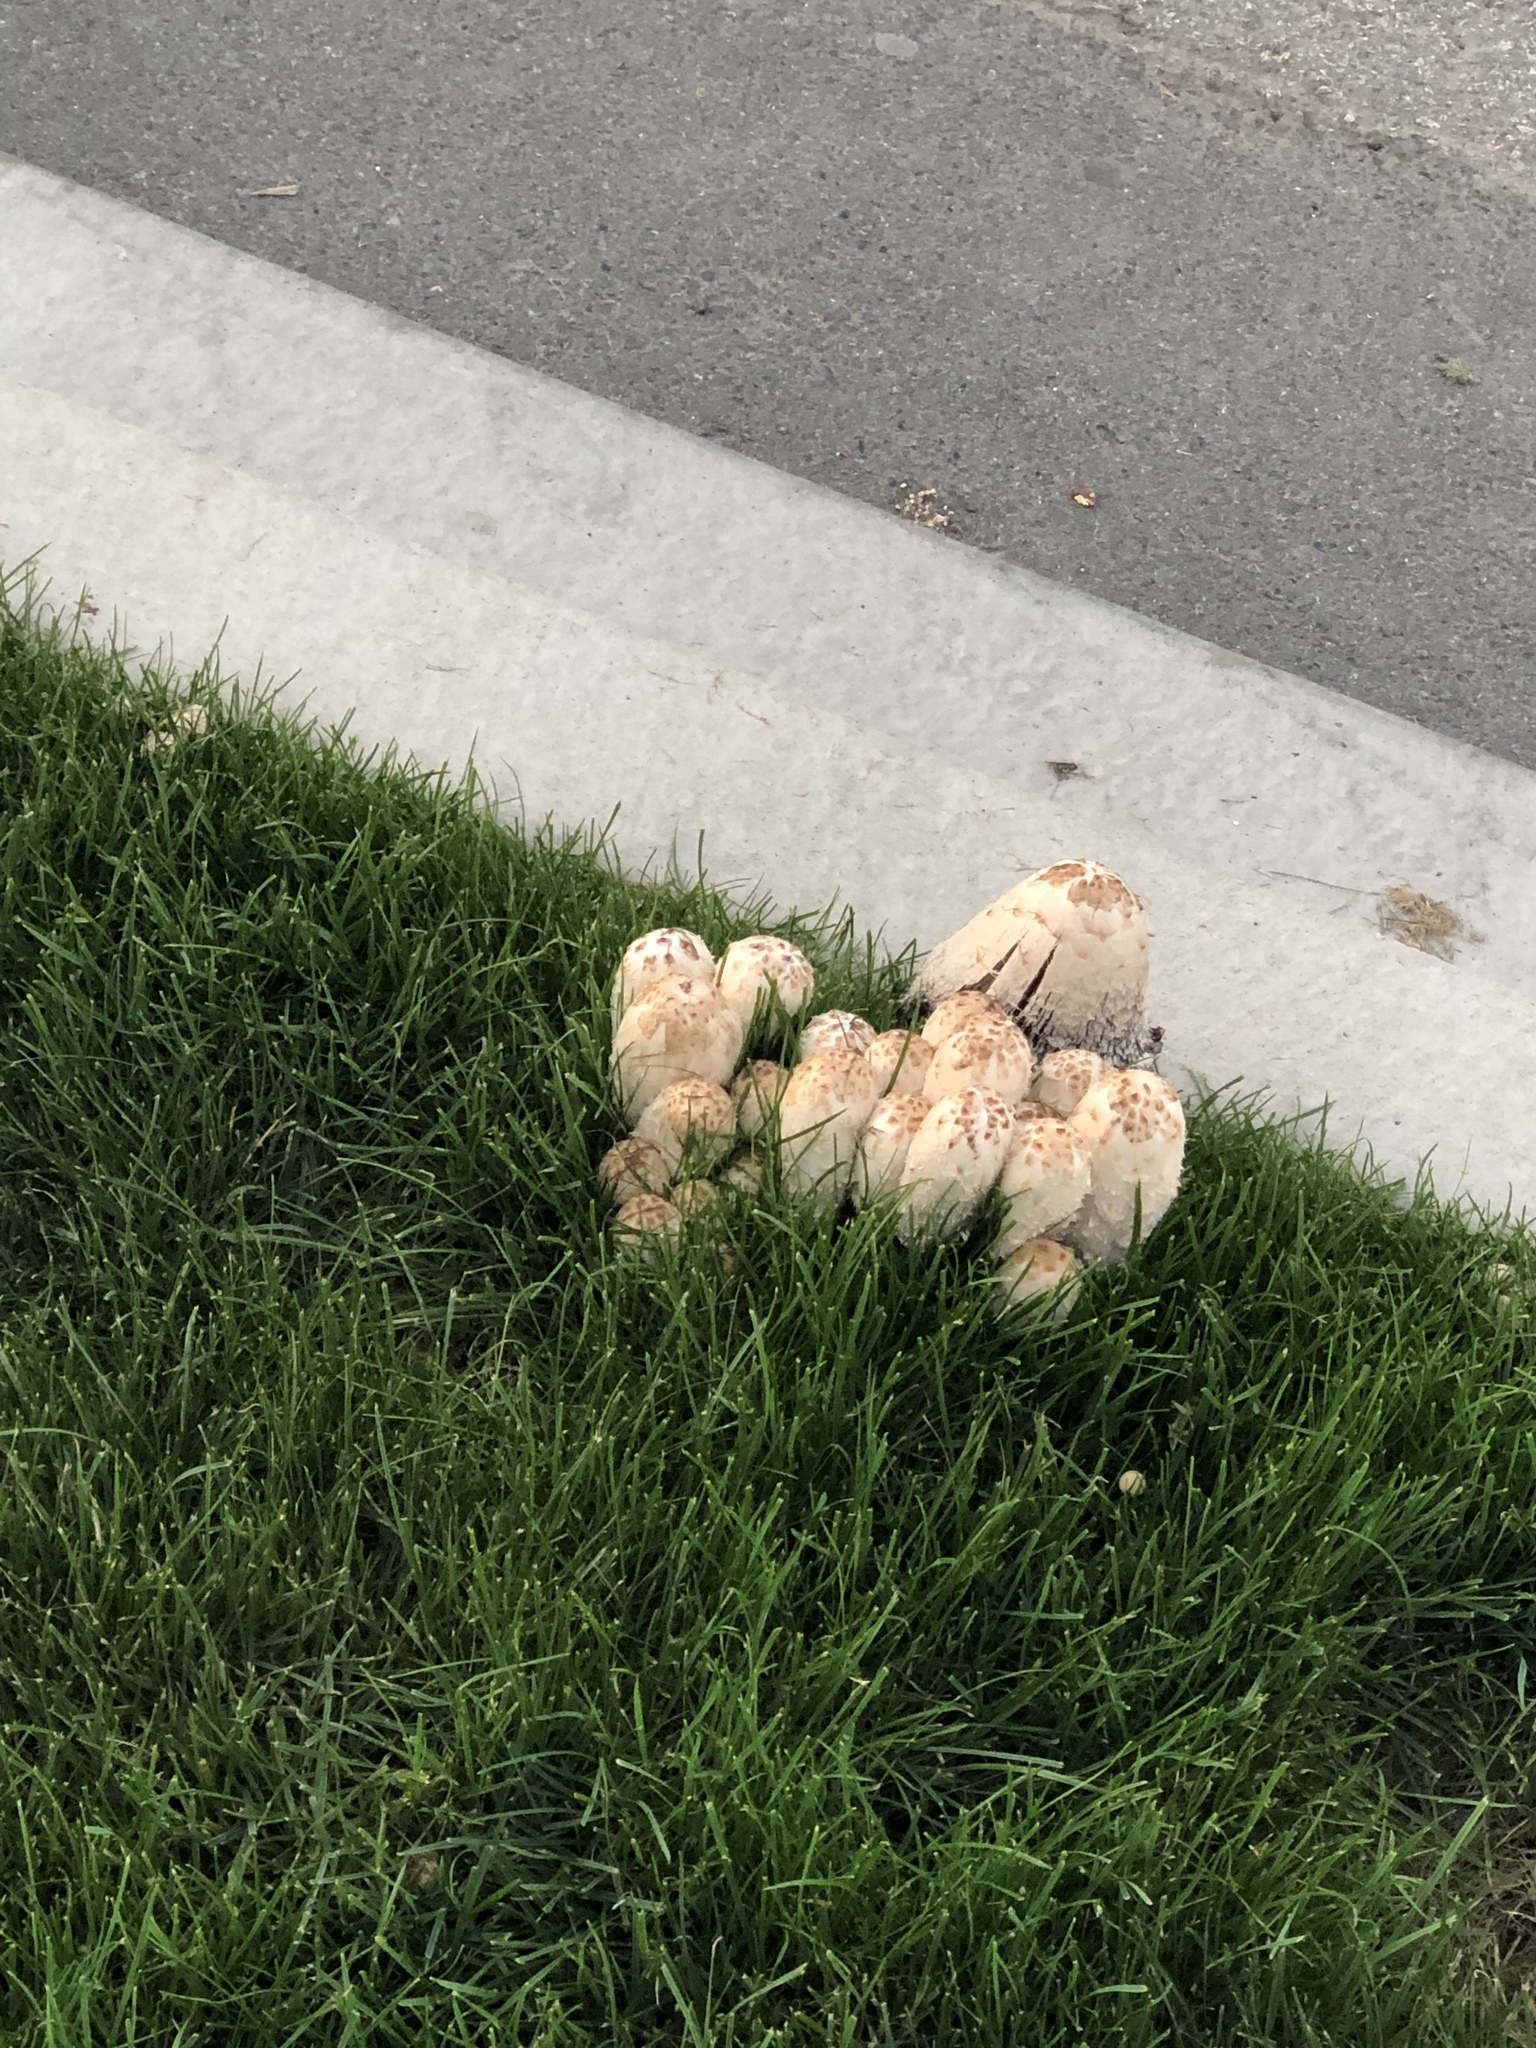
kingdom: Fungi
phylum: Basidiomycota
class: Agaricomycetes
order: Agaricales
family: Agaricaceae
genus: Coprinus
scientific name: Coprinus comatus
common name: Lawyer's wig
